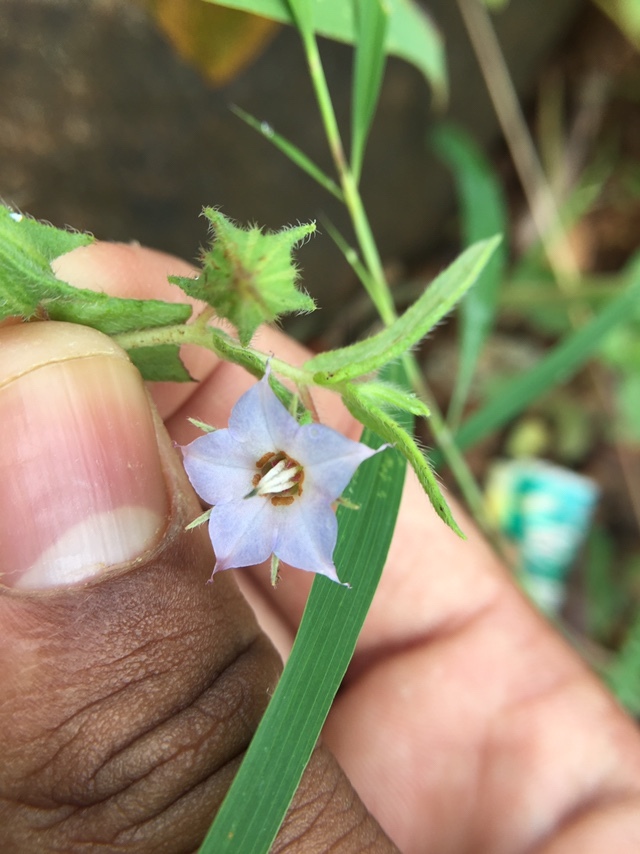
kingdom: Plantae
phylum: Tracheophyta
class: Magnoliopsida
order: Boraginales
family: Boraginaceae
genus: Trichodesma
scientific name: Trichodesma indicum
